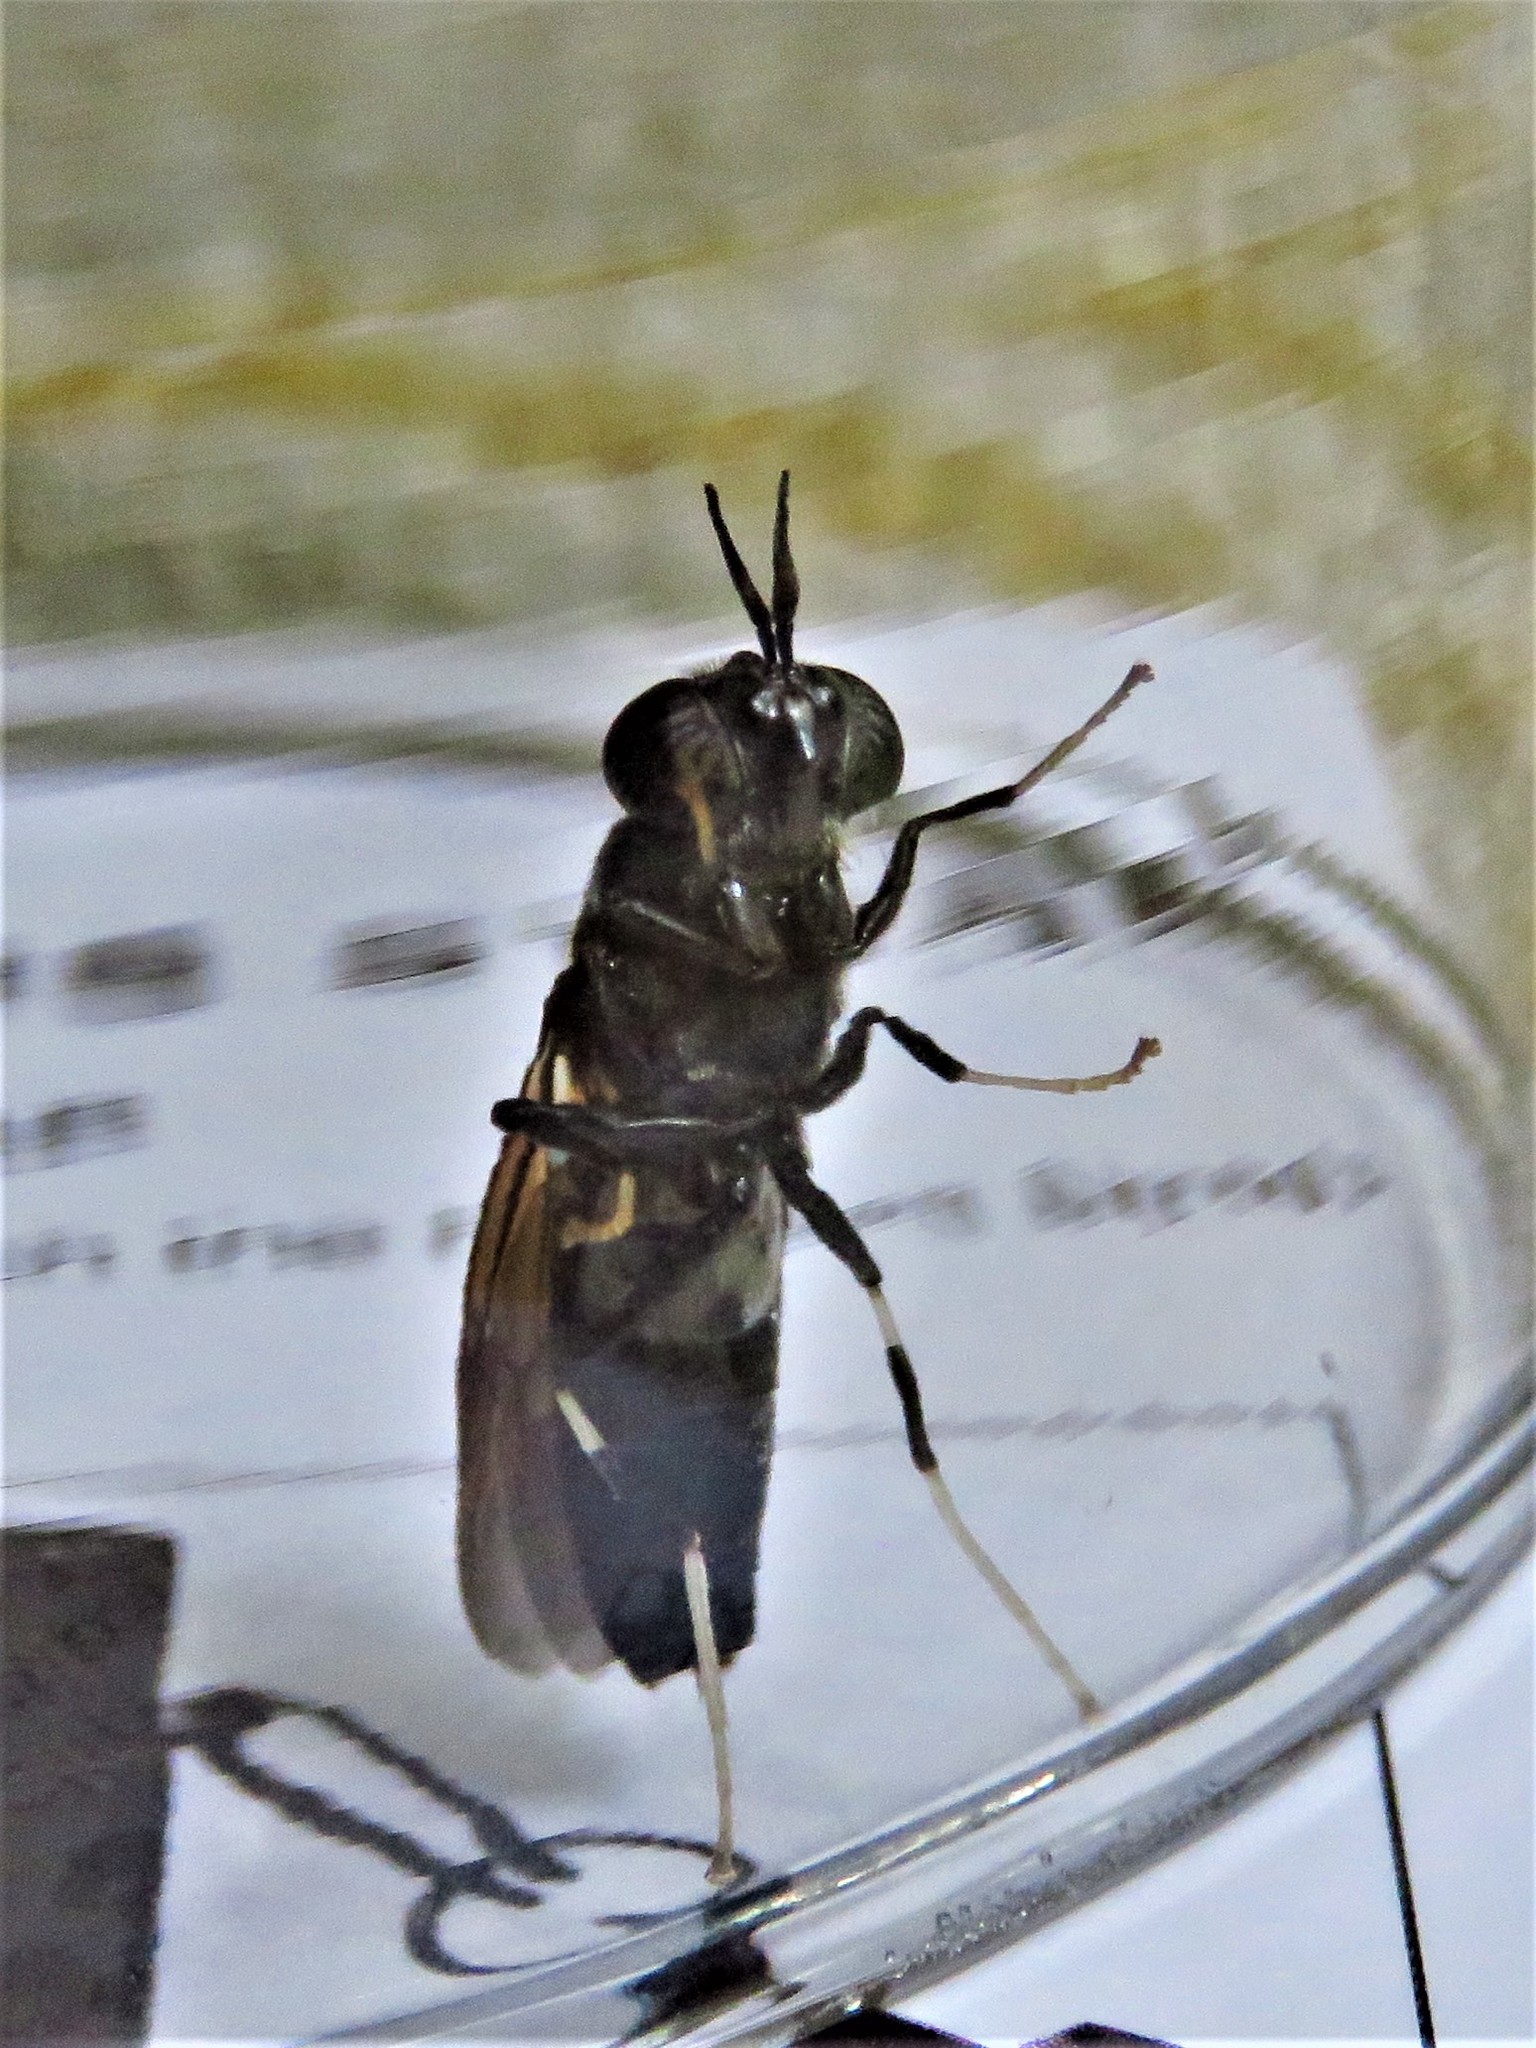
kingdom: Animalia
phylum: Arthropoda
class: Insecta
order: Diptera
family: Stratiomyidae
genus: Hermetia
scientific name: Hermetia illucens
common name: Black soldier fly
